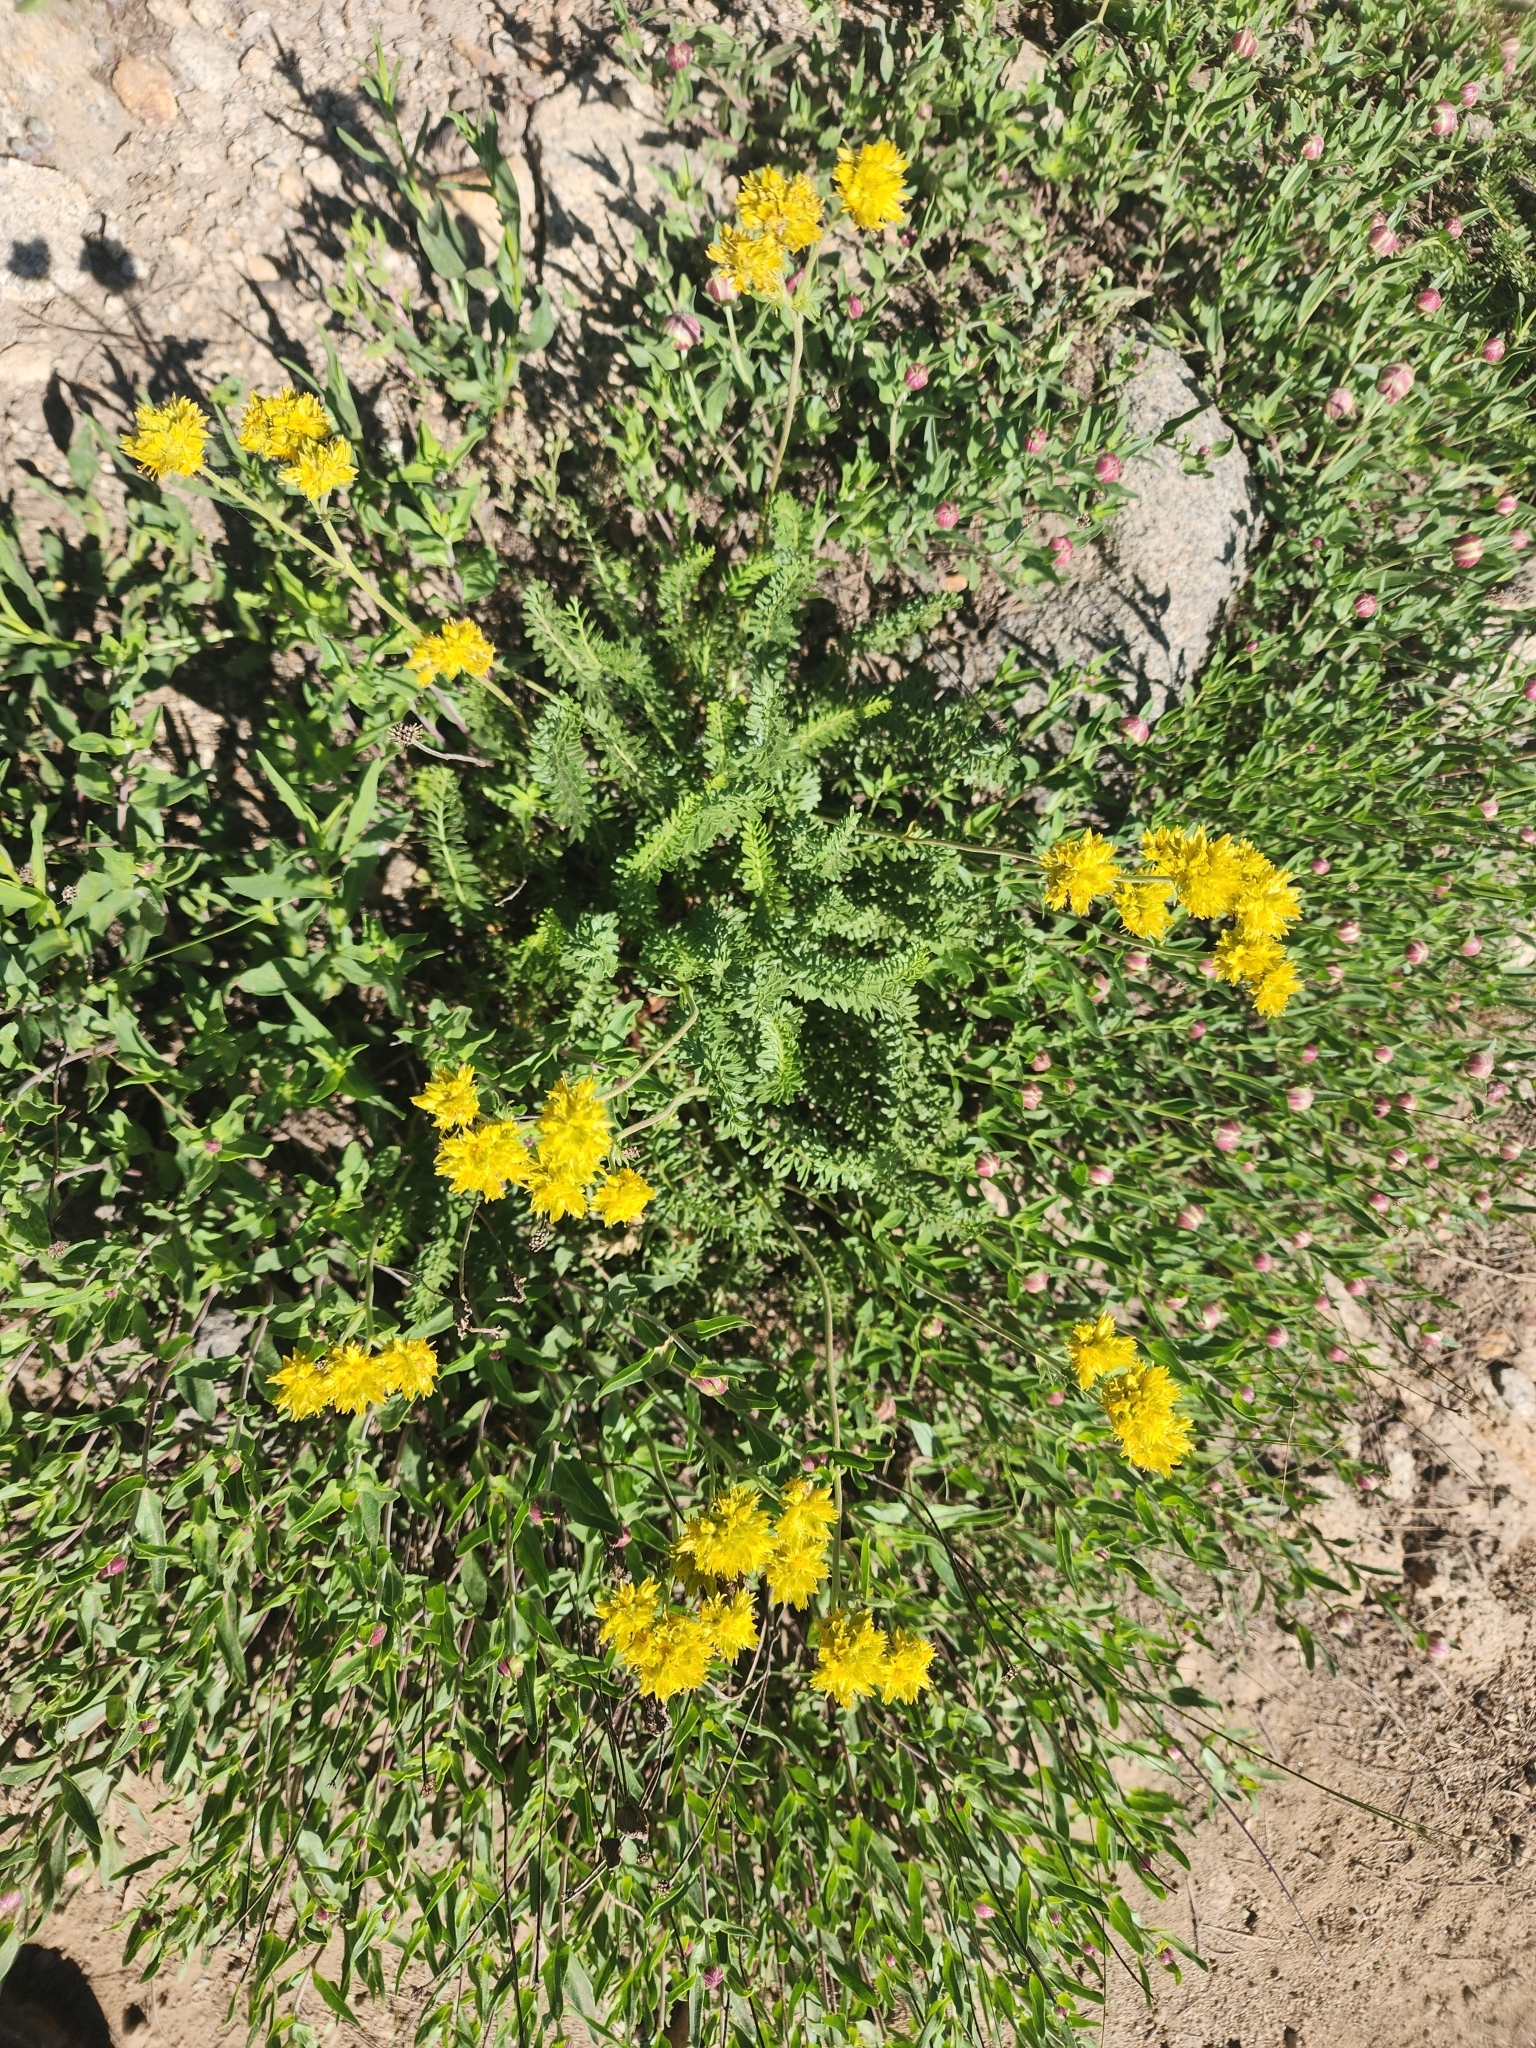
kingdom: Plantae
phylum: Tracheophyta
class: Magnoliopsida
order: Rosales
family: Rosaceae
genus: Potentilla
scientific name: Potentilla gordonii
